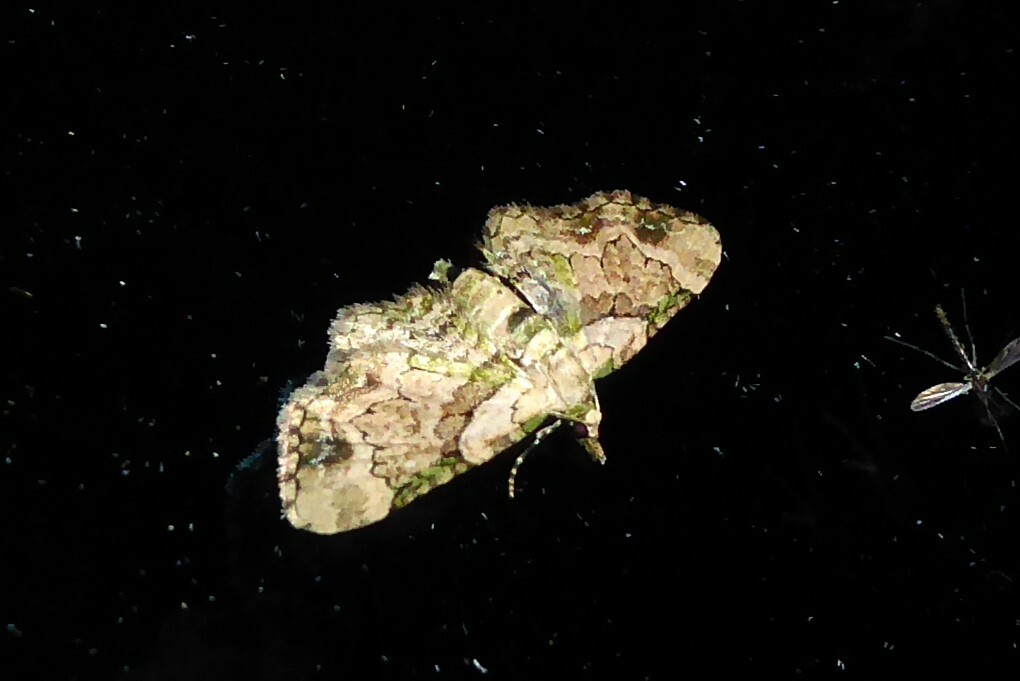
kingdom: Animalia
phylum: Arthropoda
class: Insecta
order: Lepidoptera
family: Geometridae
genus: Chloroclystis
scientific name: Chloroclystis
